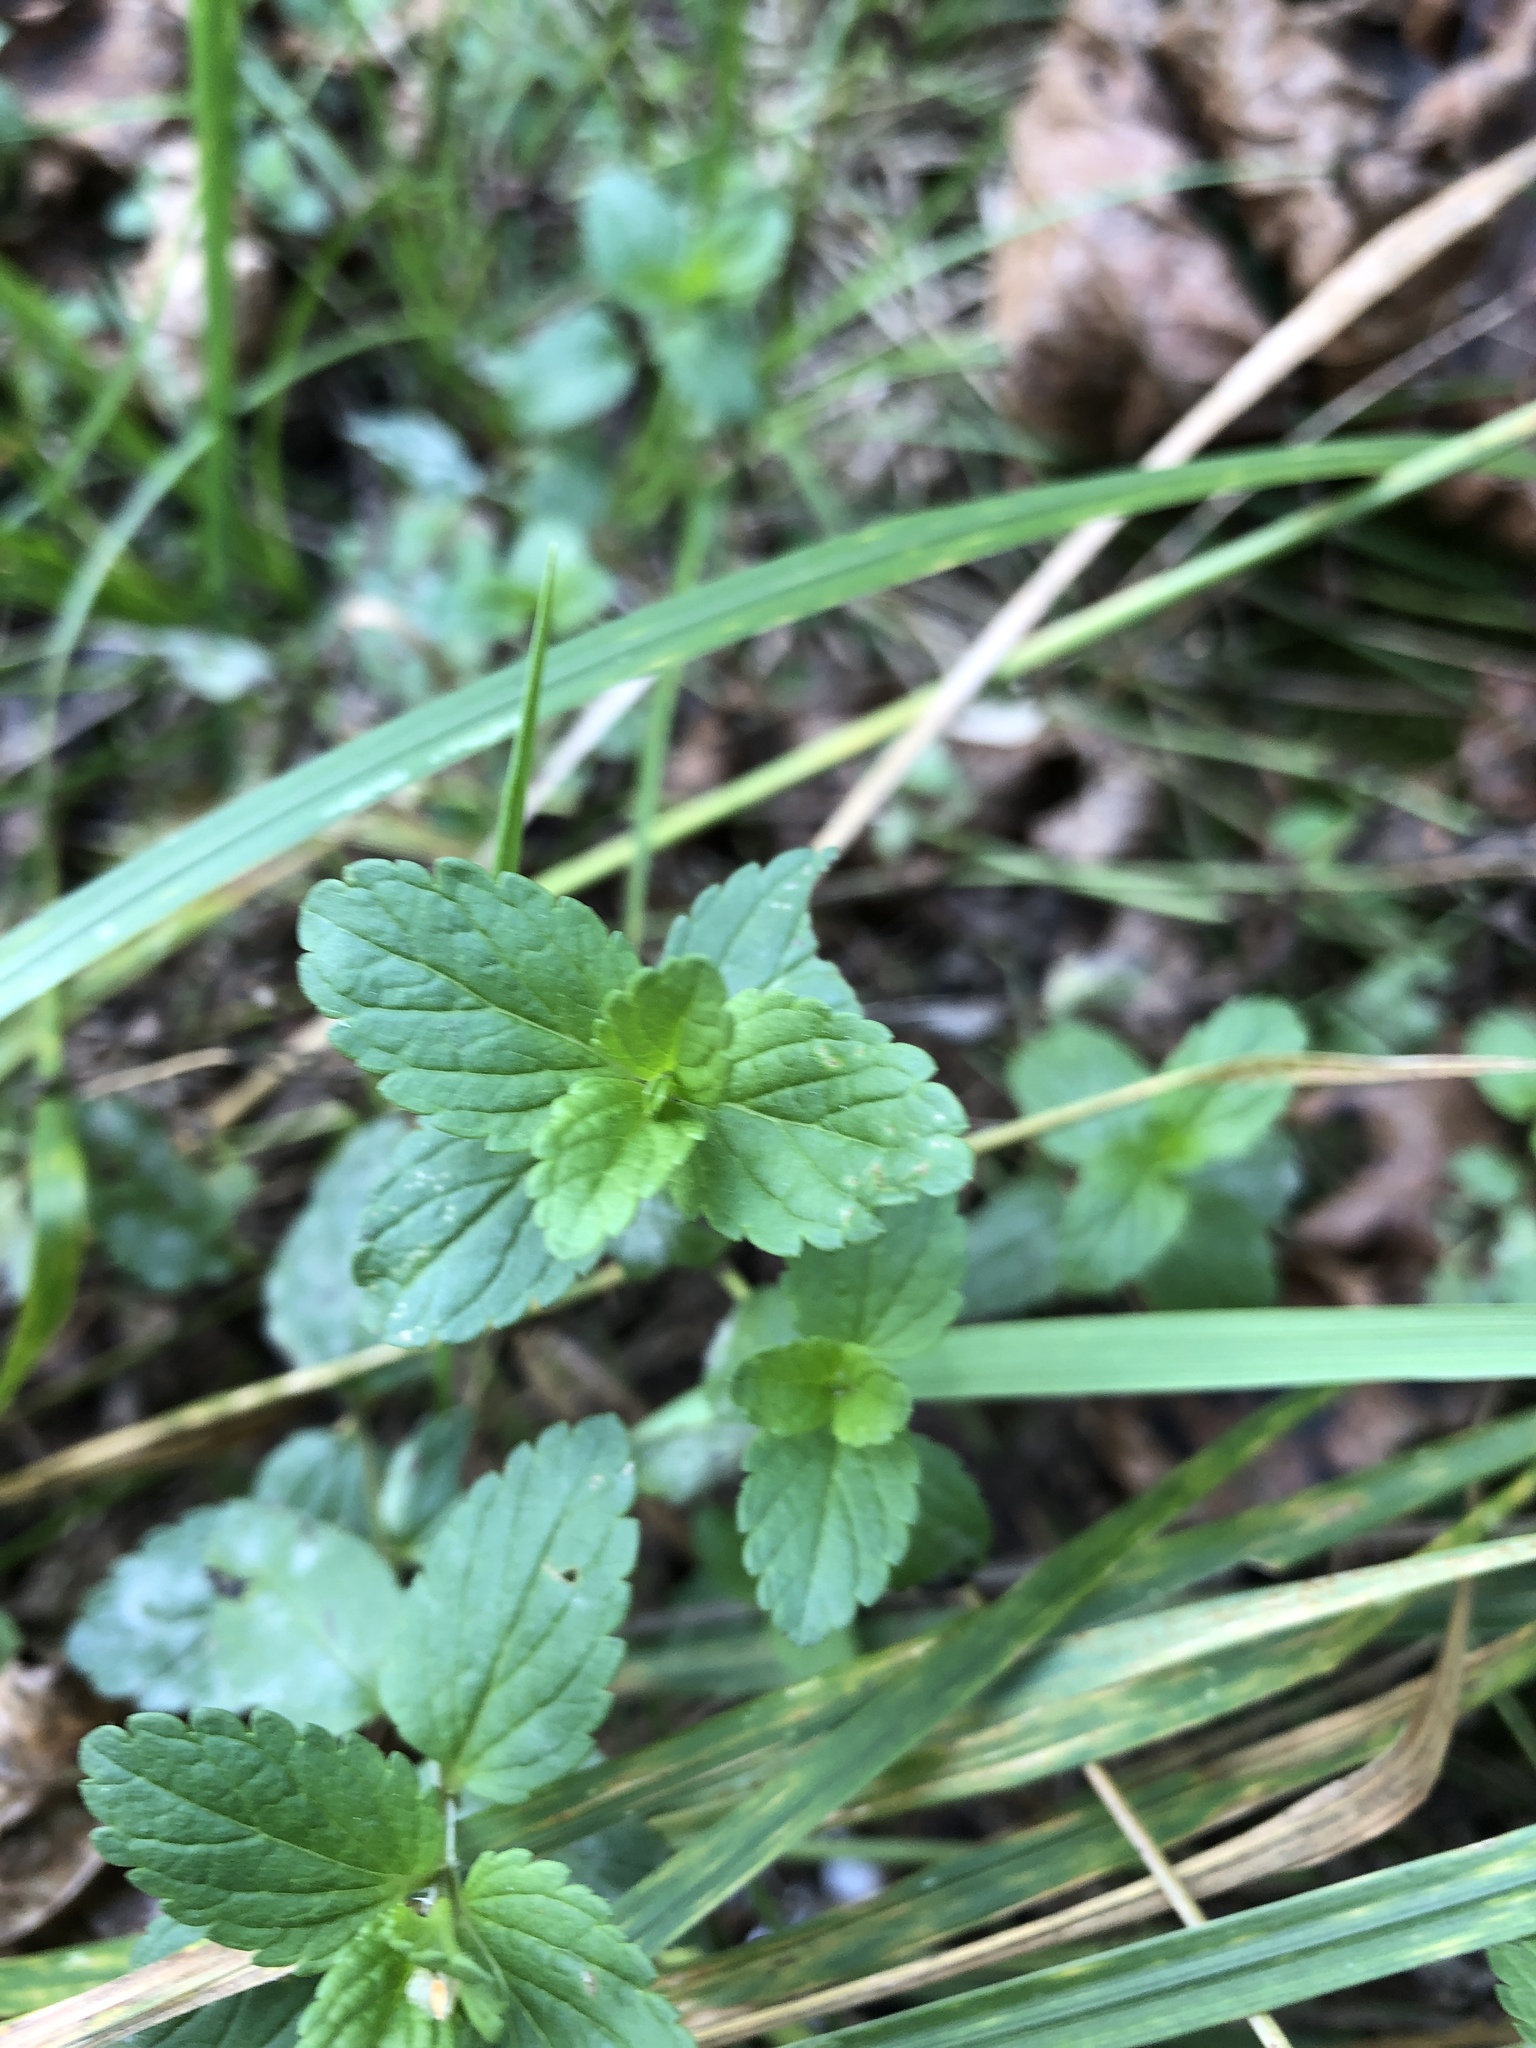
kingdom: Plantae
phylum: Tracheophyta
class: Magnoliopsida
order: Lamiales
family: Plantaginaceae
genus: Veronica
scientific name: Veronica chamaedrys
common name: Germander speedwell
